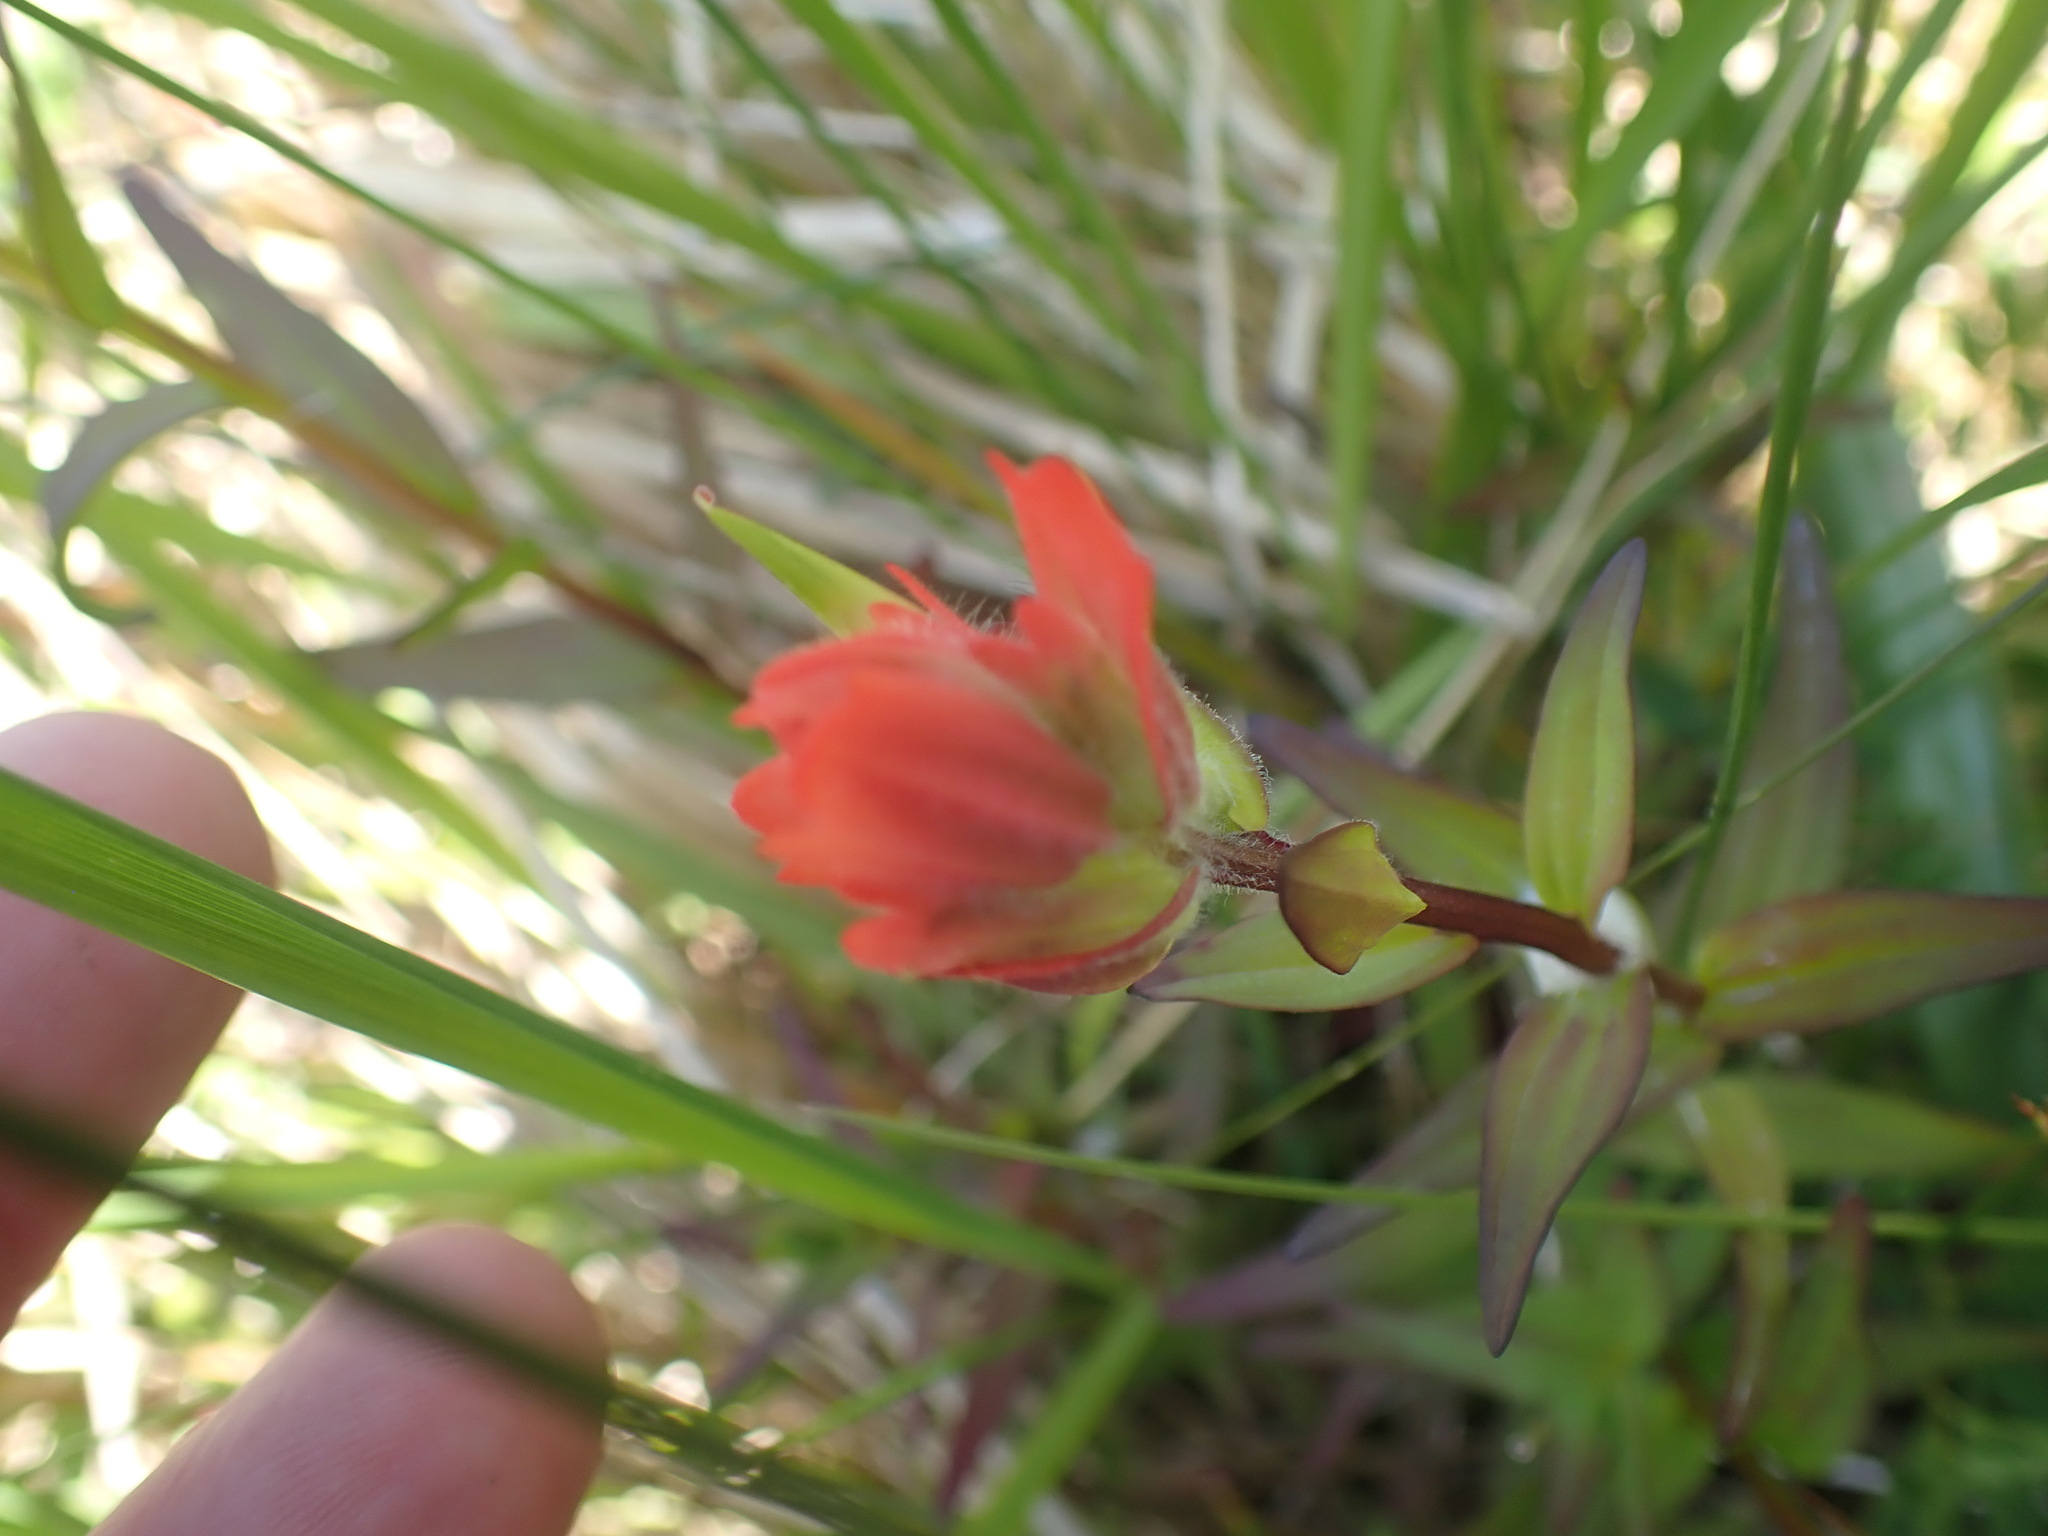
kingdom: Plantae
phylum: Tracheophyta
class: Magnoliopsida
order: Lamiales
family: Orobanchaceae
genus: Castilleja
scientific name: Castilleja miniata
